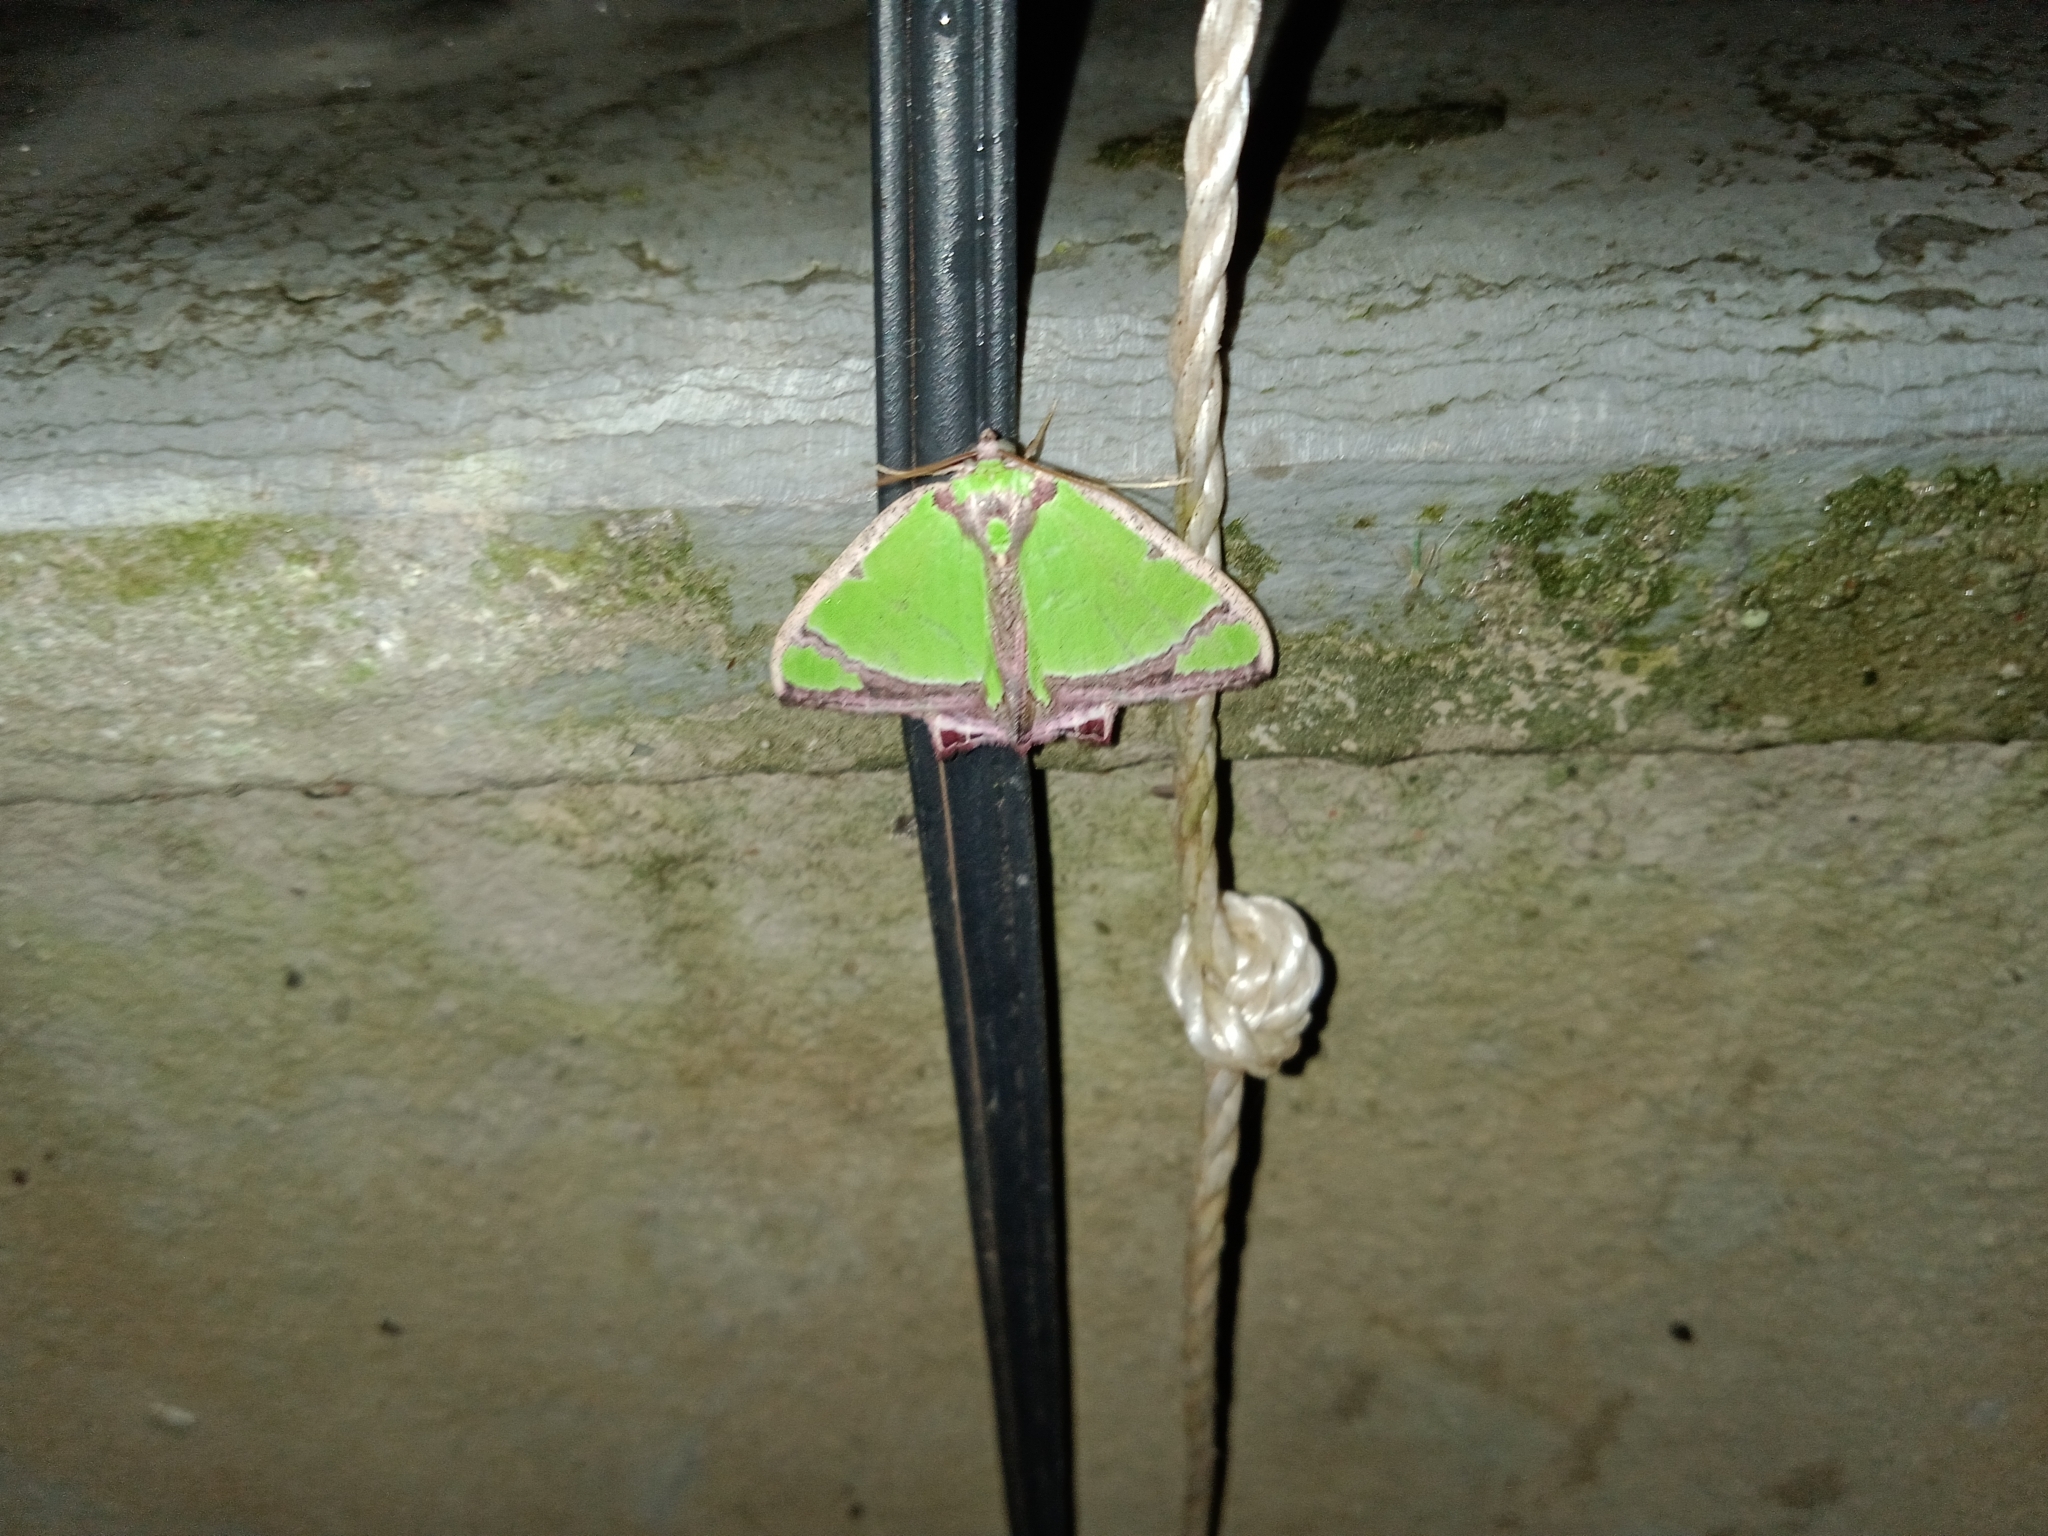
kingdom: Animalia
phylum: Arthropoda
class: Insecta
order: Lepidoptera
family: Geometridae
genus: Agathia
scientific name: Agathia laetata
